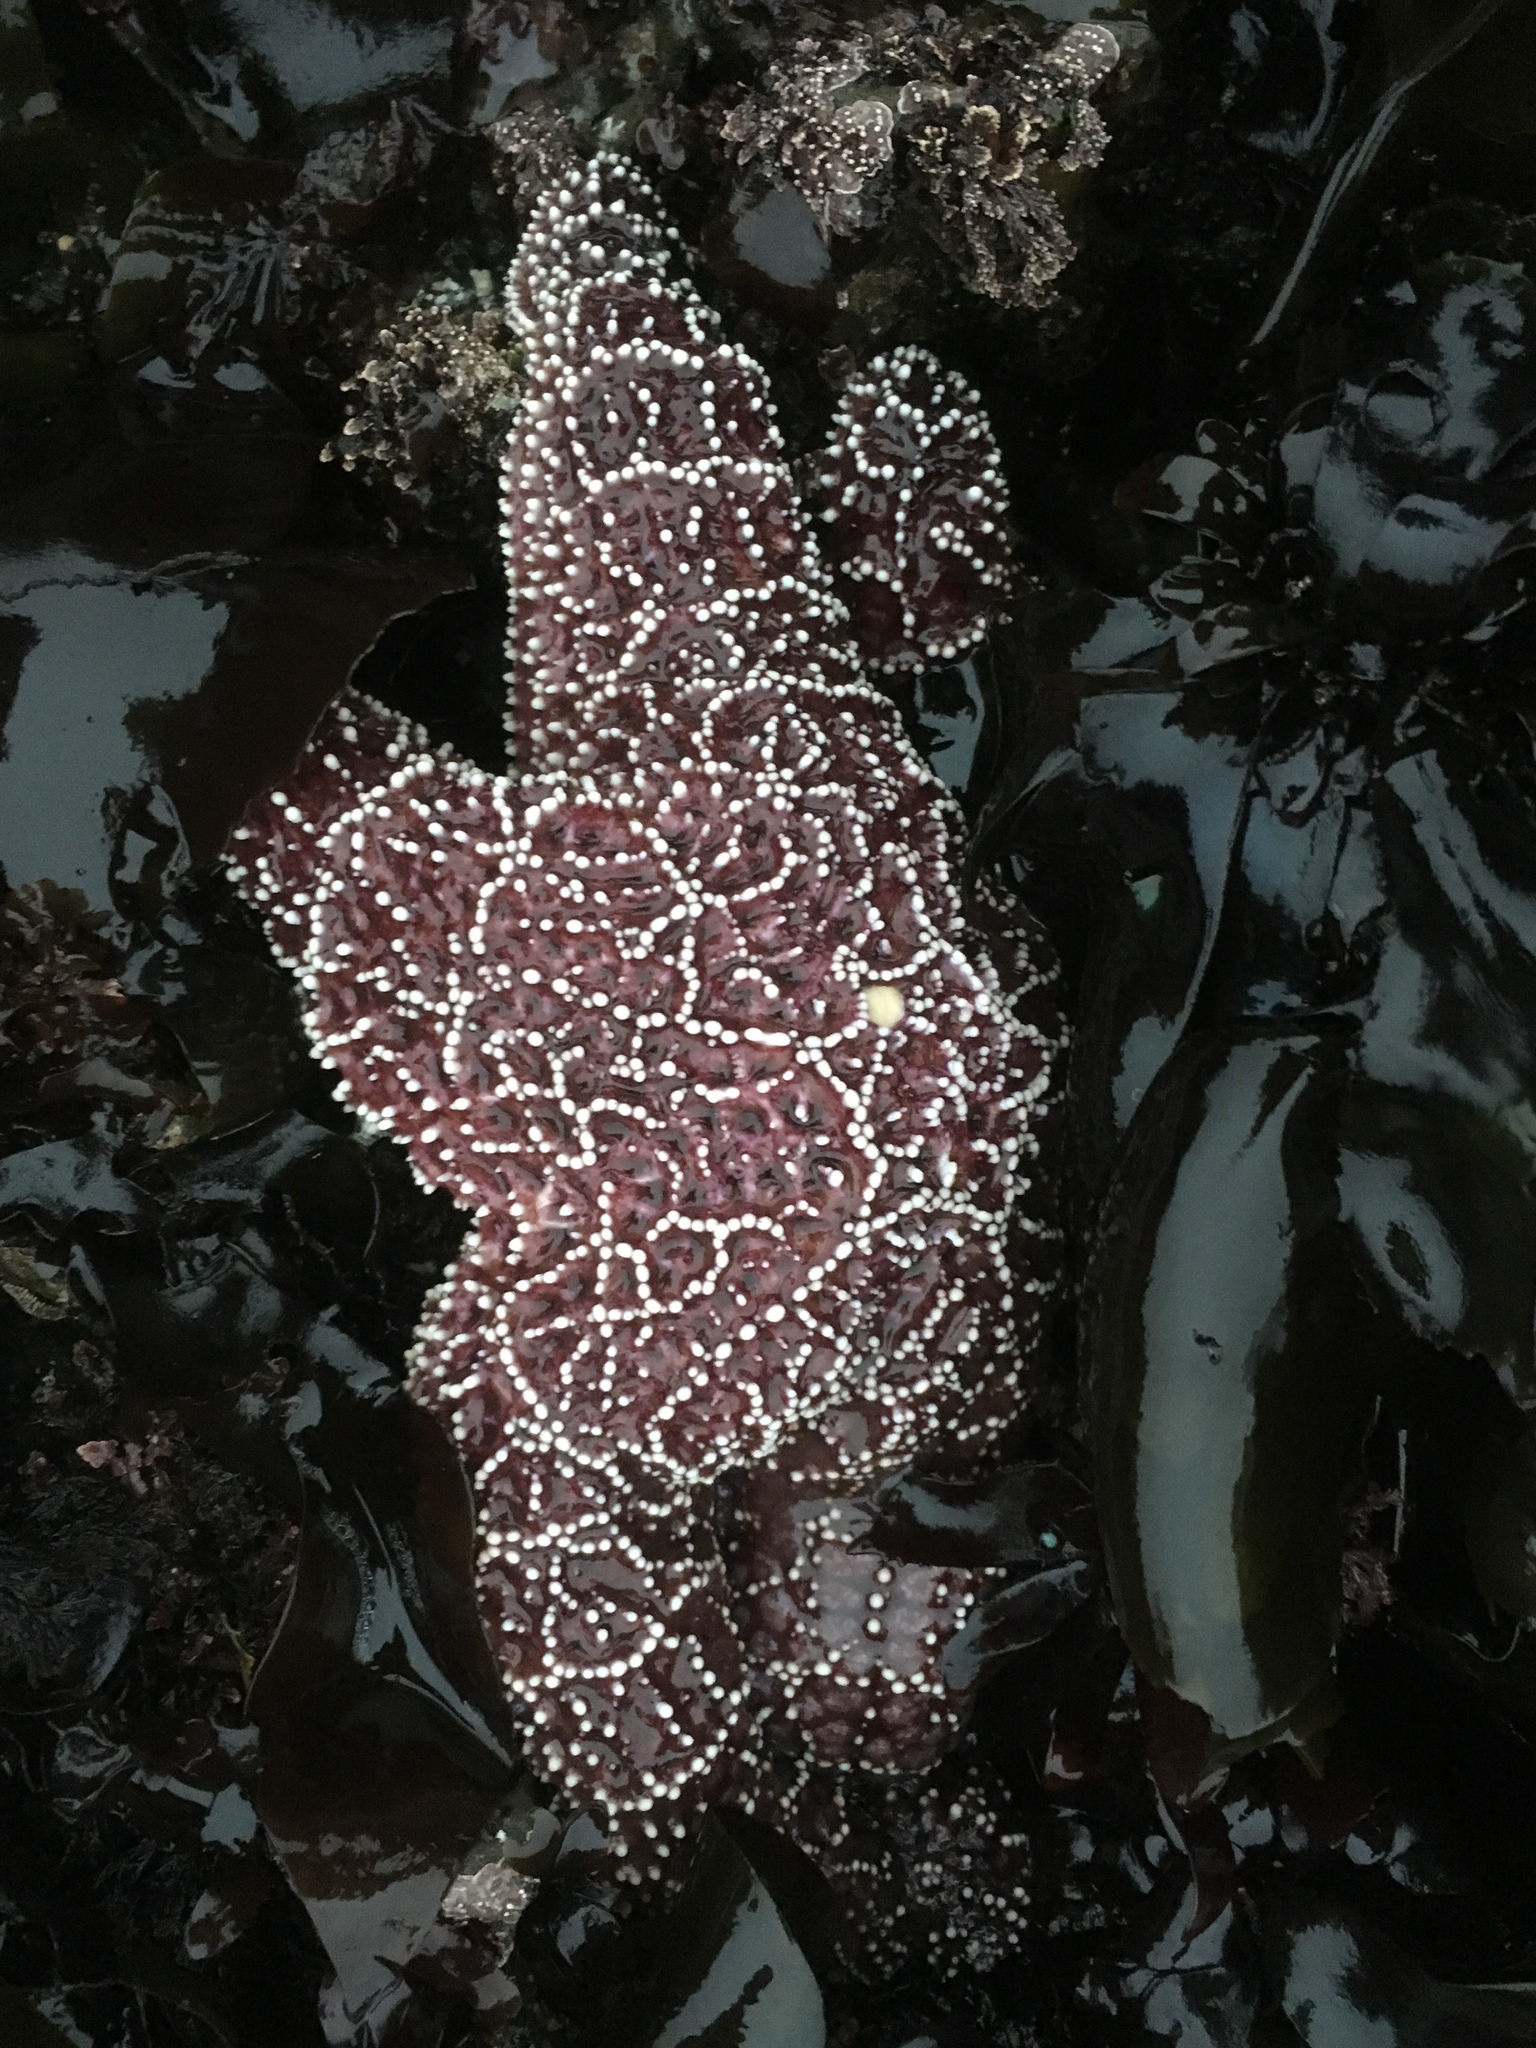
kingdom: Animalia
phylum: Echinodermata
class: Asteroidea
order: Forcipulatida
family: Asteriidae
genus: Pisaster
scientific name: Pisaster ochraceus
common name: Ochre stars
